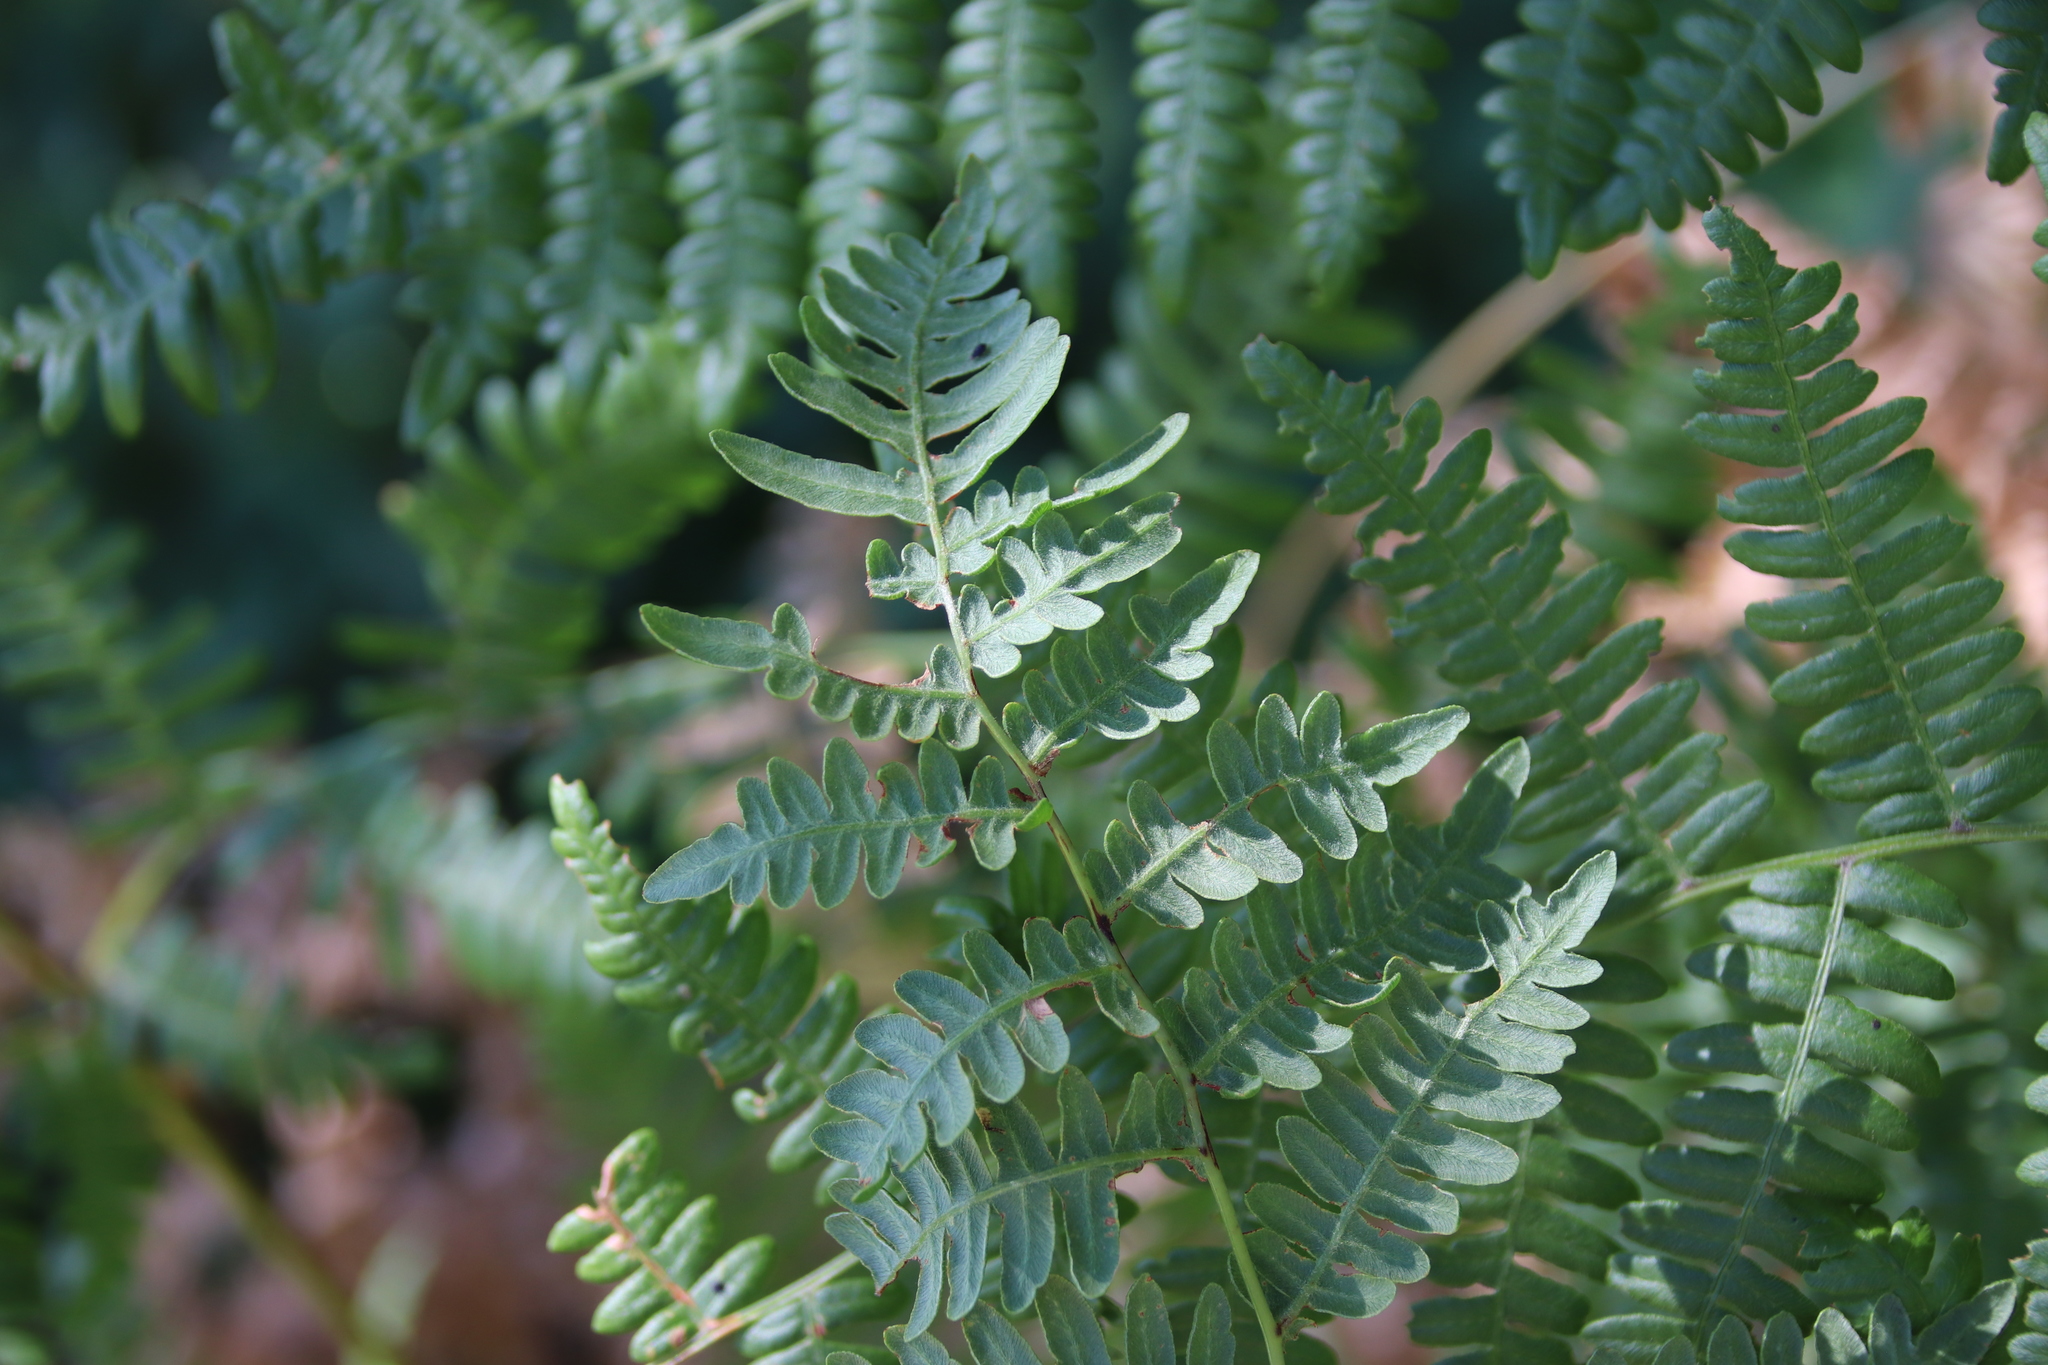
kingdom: Plantae
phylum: Tracheophyta
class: Polypodiopsida
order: Polypodiales
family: Dennstaedtiaceae
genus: Pteridium
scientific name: Pteridium aquilinum
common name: Bracken
